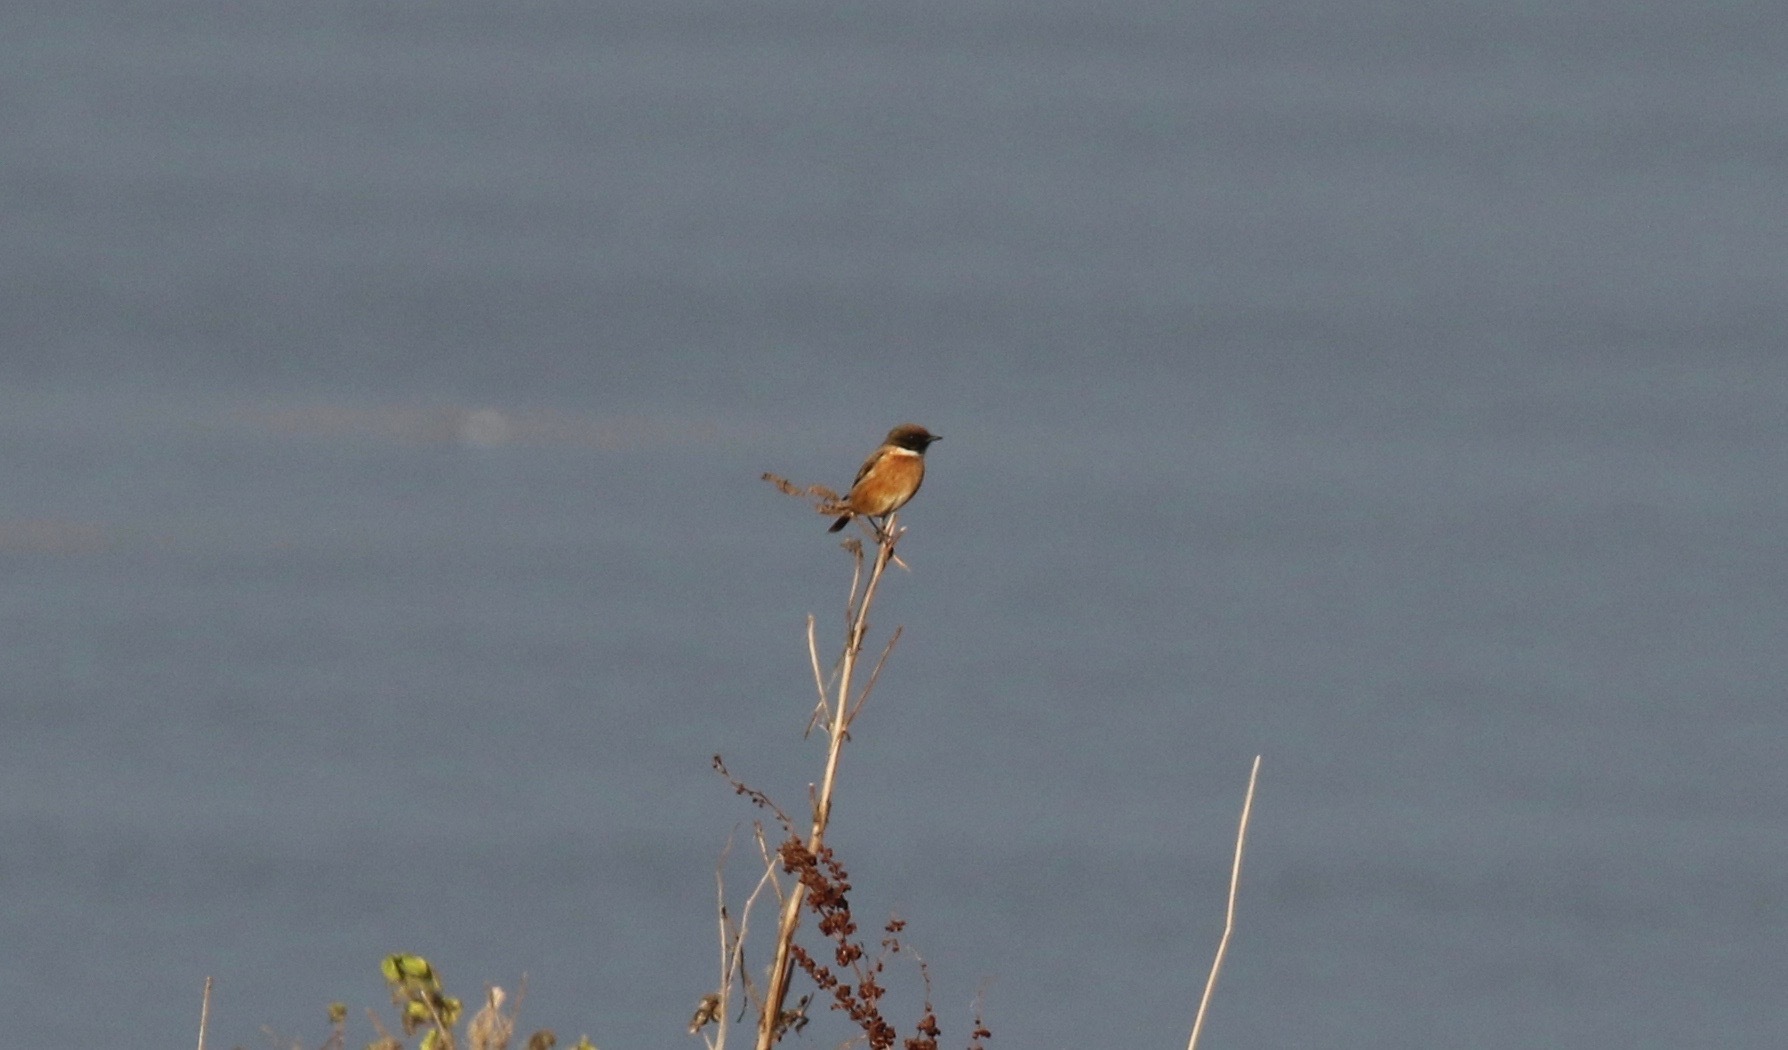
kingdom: Animalia
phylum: Chordata
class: Aves
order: Passeriformes
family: Muscicapidae
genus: Saxicola
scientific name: Saxicola rubicola
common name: European stonechat
